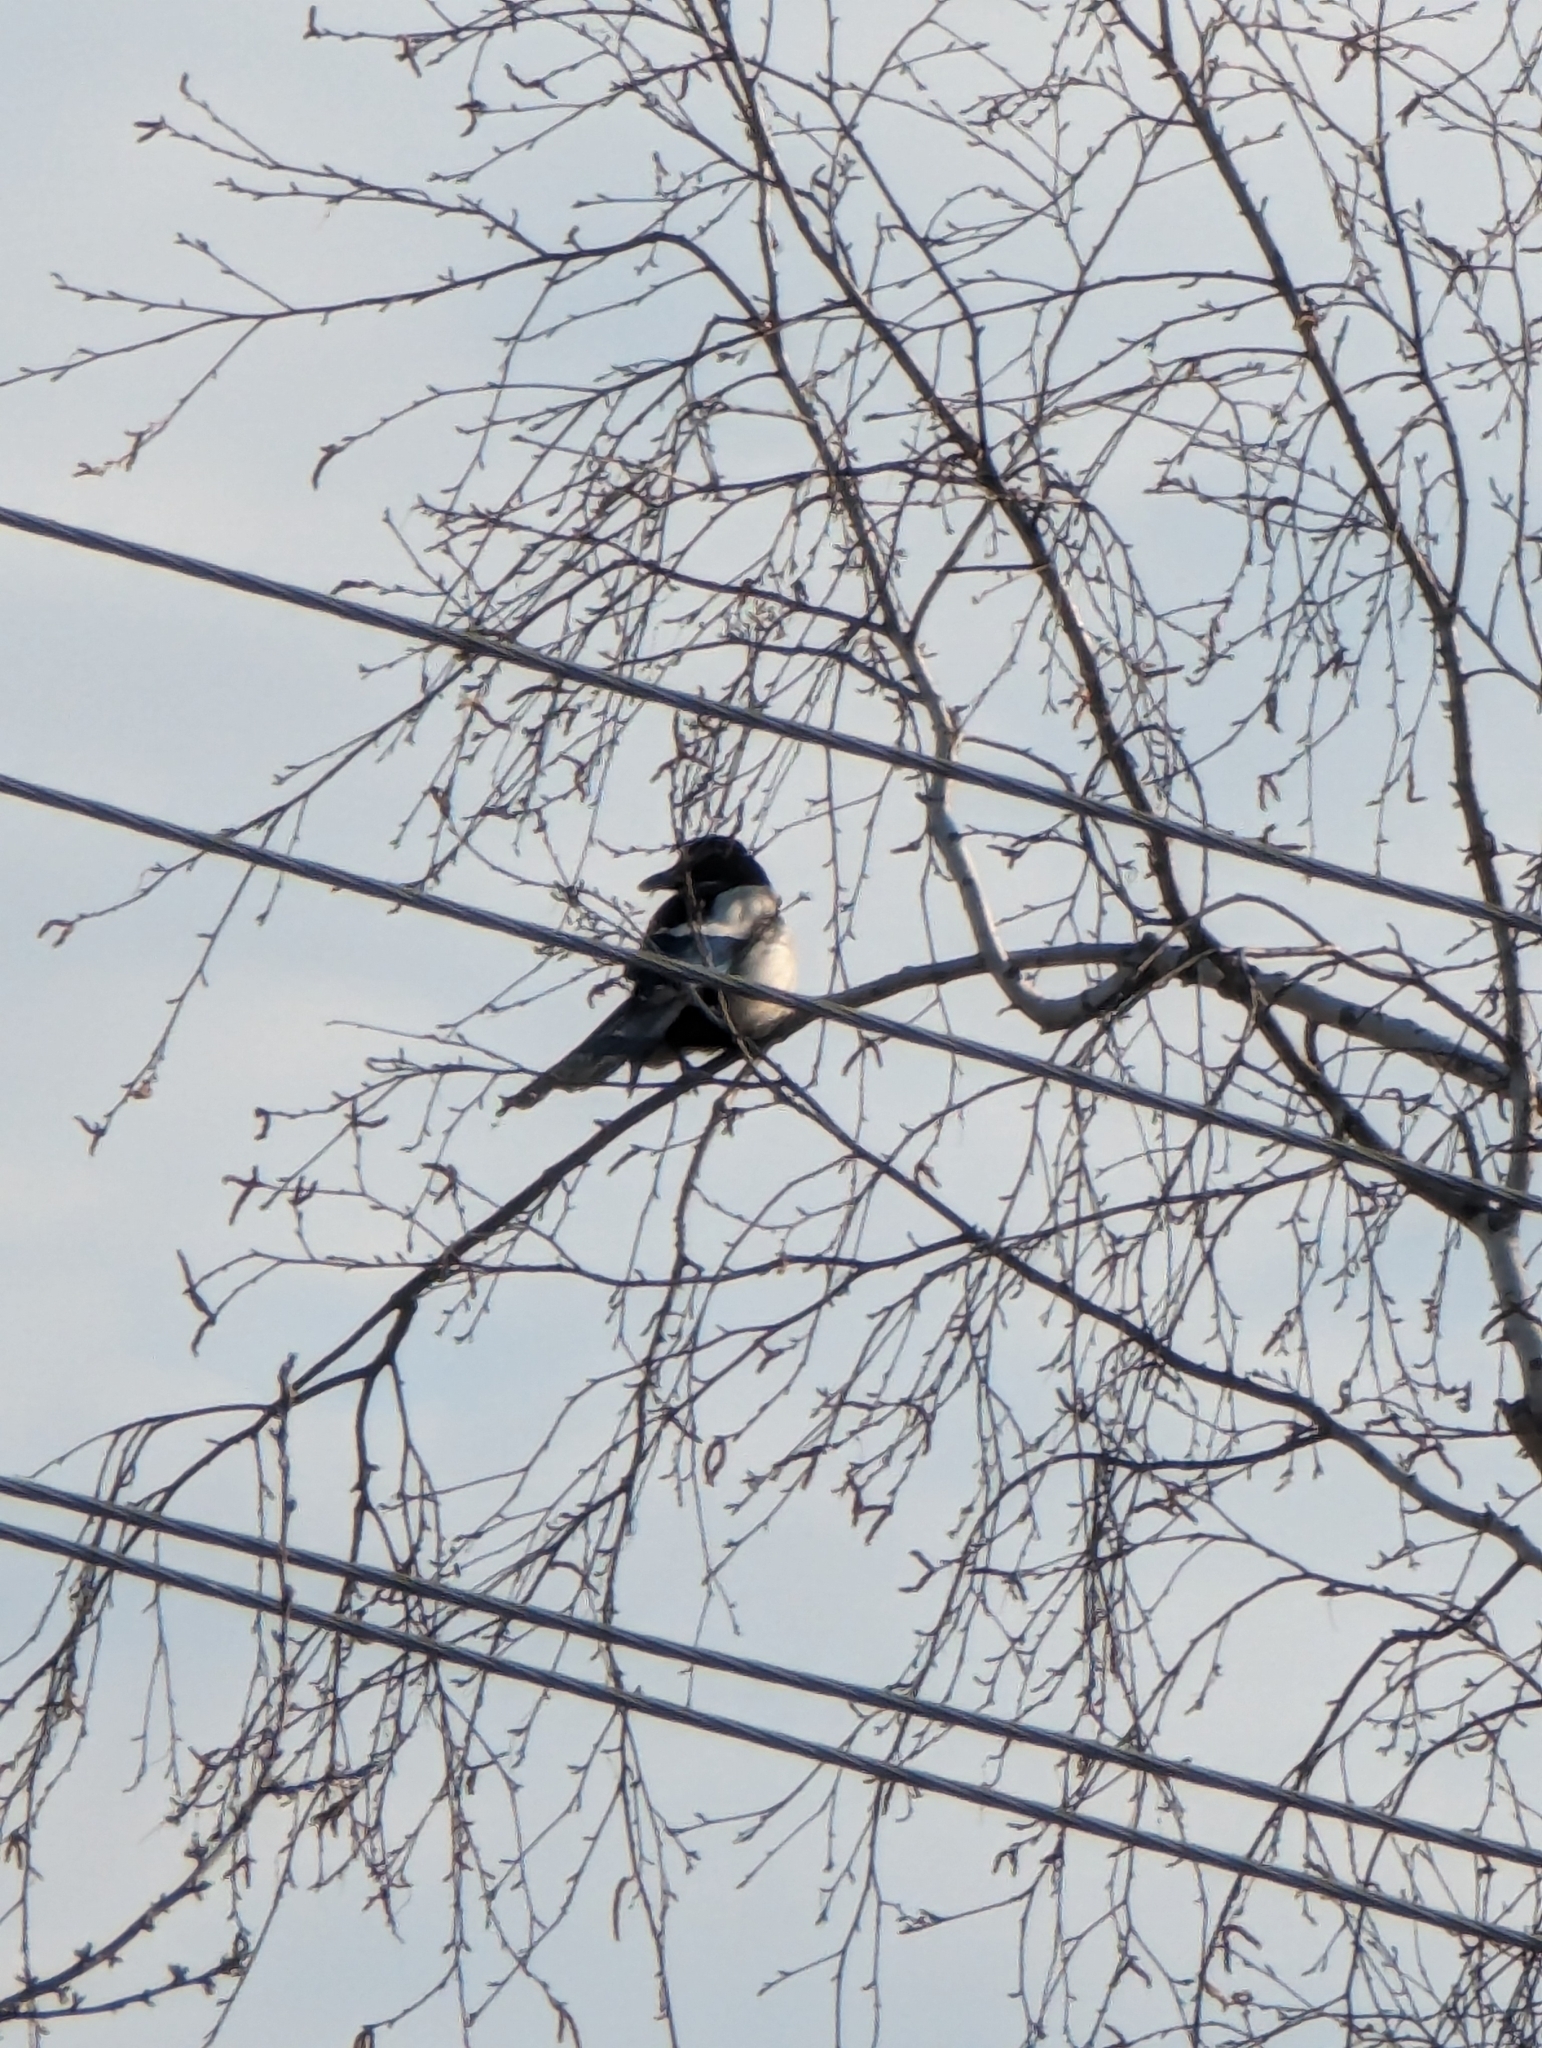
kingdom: Animalia
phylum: Chordata
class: Aves
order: Passeriformes
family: Corvidae
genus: Pica
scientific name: Pica pica
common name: Eurasian magpie
